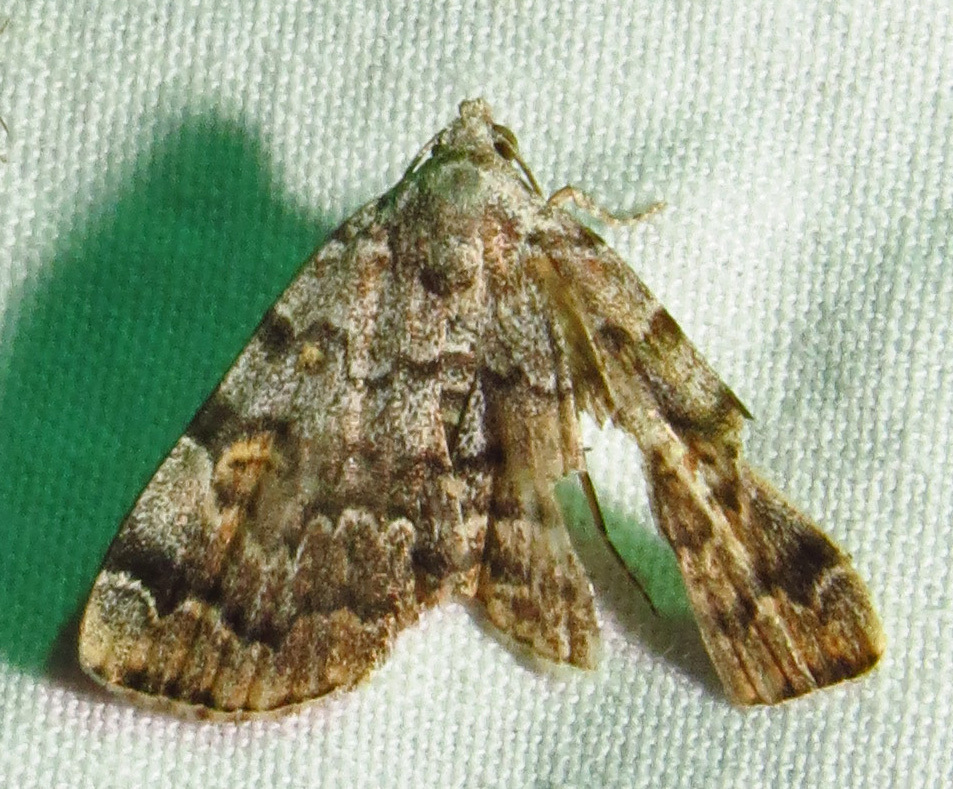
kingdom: Animalia
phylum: Arthropoda
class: Insecta
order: Lepidoptera
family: Erebidae
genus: Idia
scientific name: Idia americalis
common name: American idia moth
